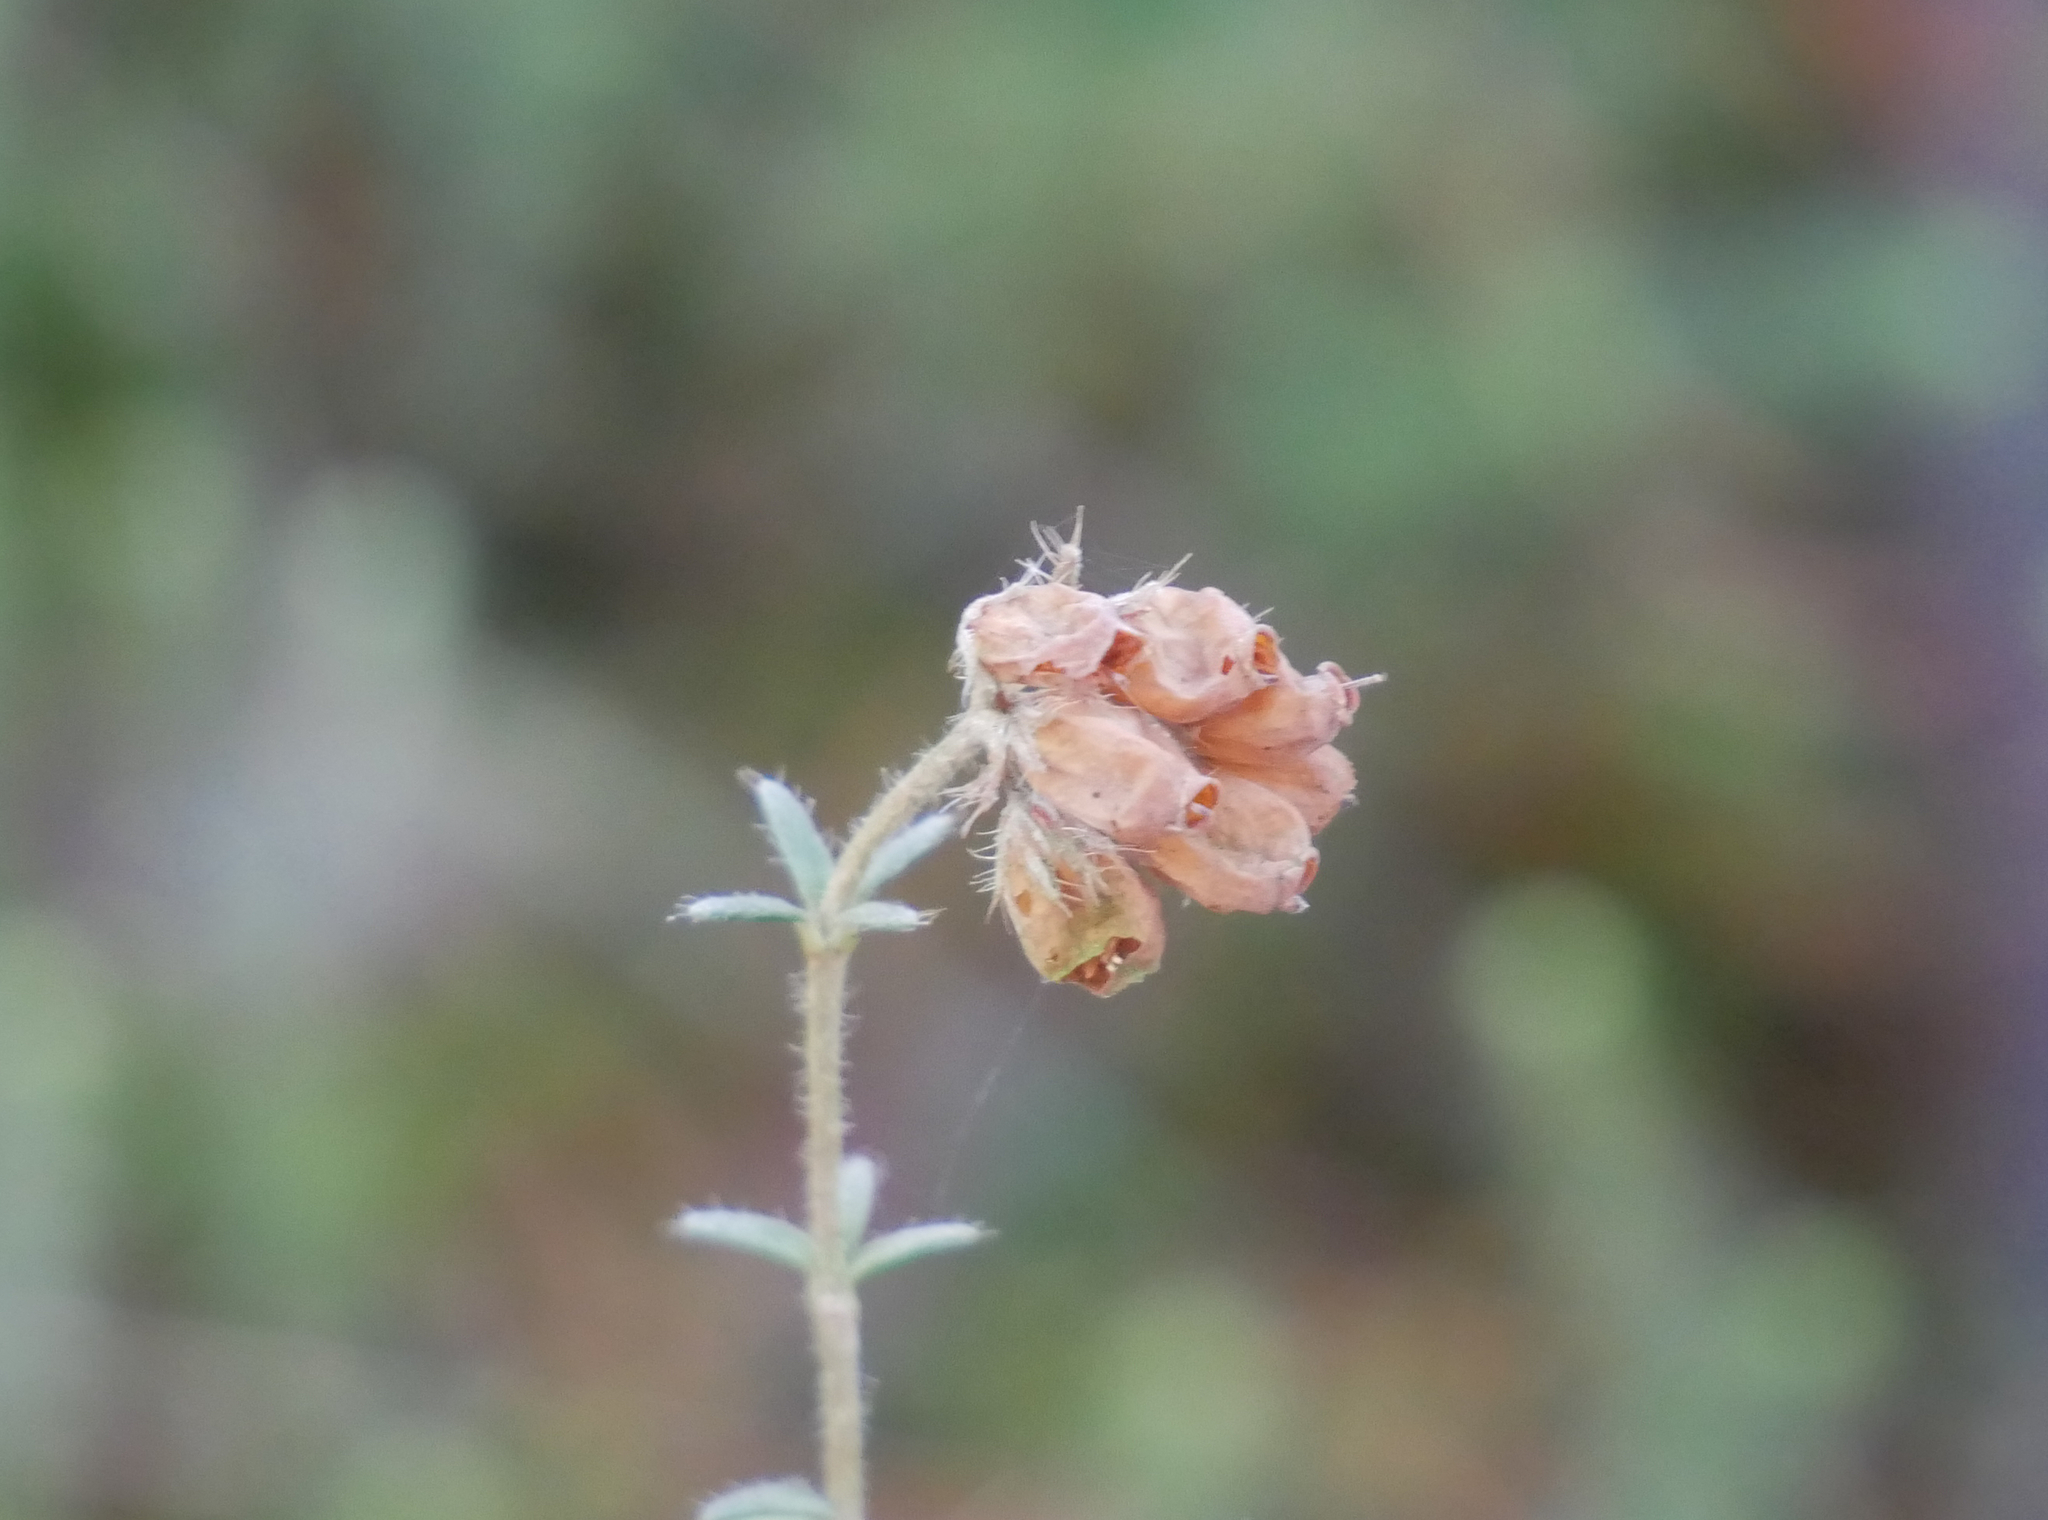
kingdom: Plantae
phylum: Tracheophyta
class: Magnoliopsida
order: Ericales
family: Ericaceae
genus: Erica
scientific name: Erica tetralix
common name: Cross-leaved heath
